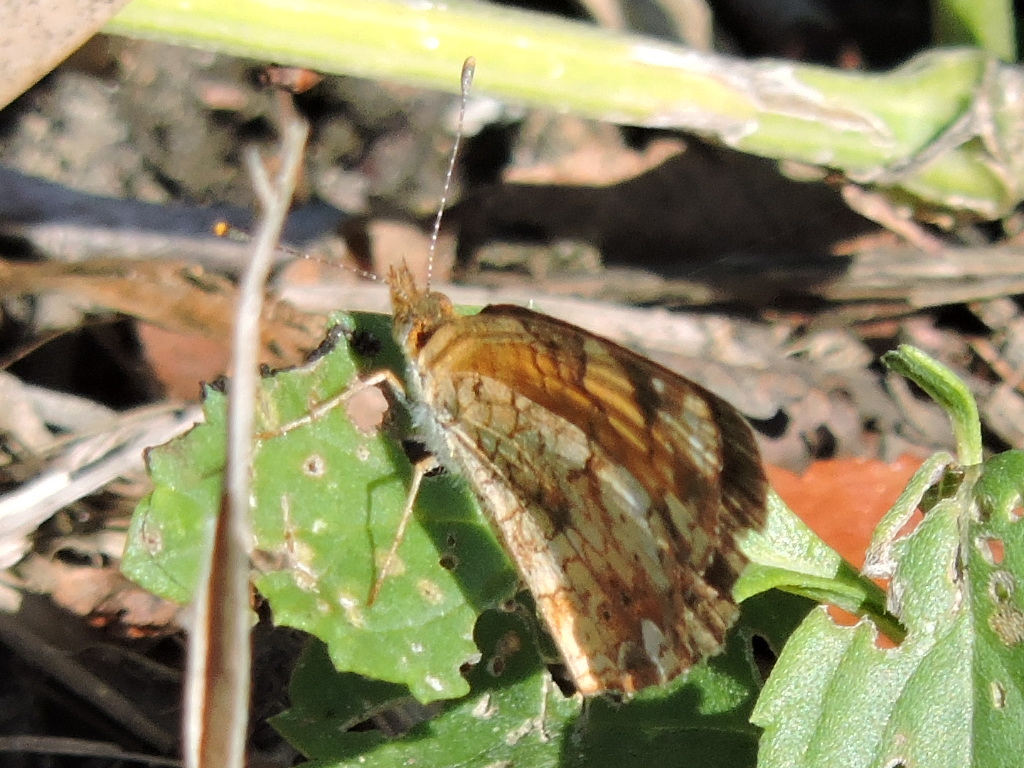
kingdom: Animalia
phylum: Arthropoda
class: Insecta
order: Lepidoptera
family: Nymphalidae
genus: Phyciodes
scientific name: Phyciodes tharos
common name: Pearl crescent
